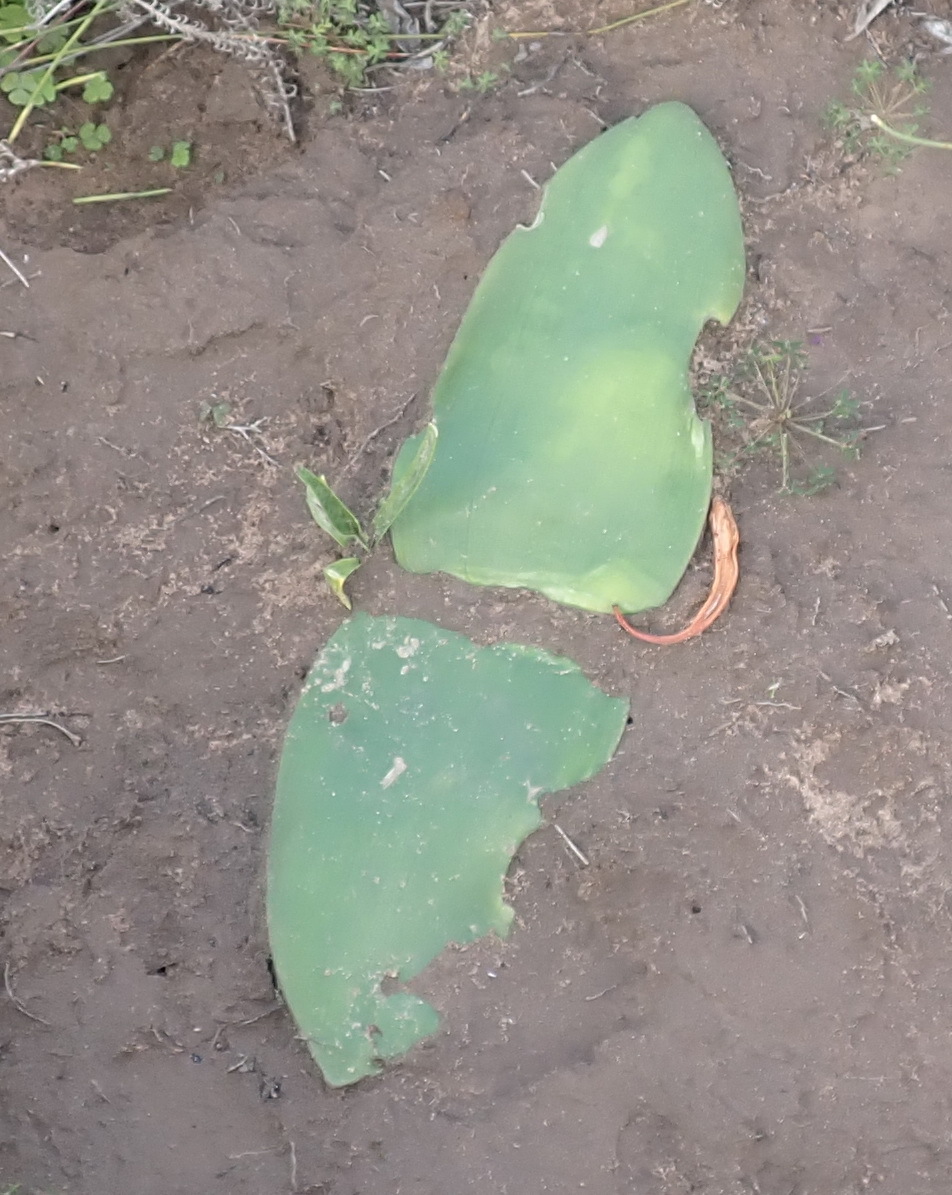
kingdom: Plantae
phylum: Tracheophyta
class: Liliopsida
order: Asparagales
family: Amaryllidaceae
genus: Haemanthus
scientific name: Haemanthus sanguineus
